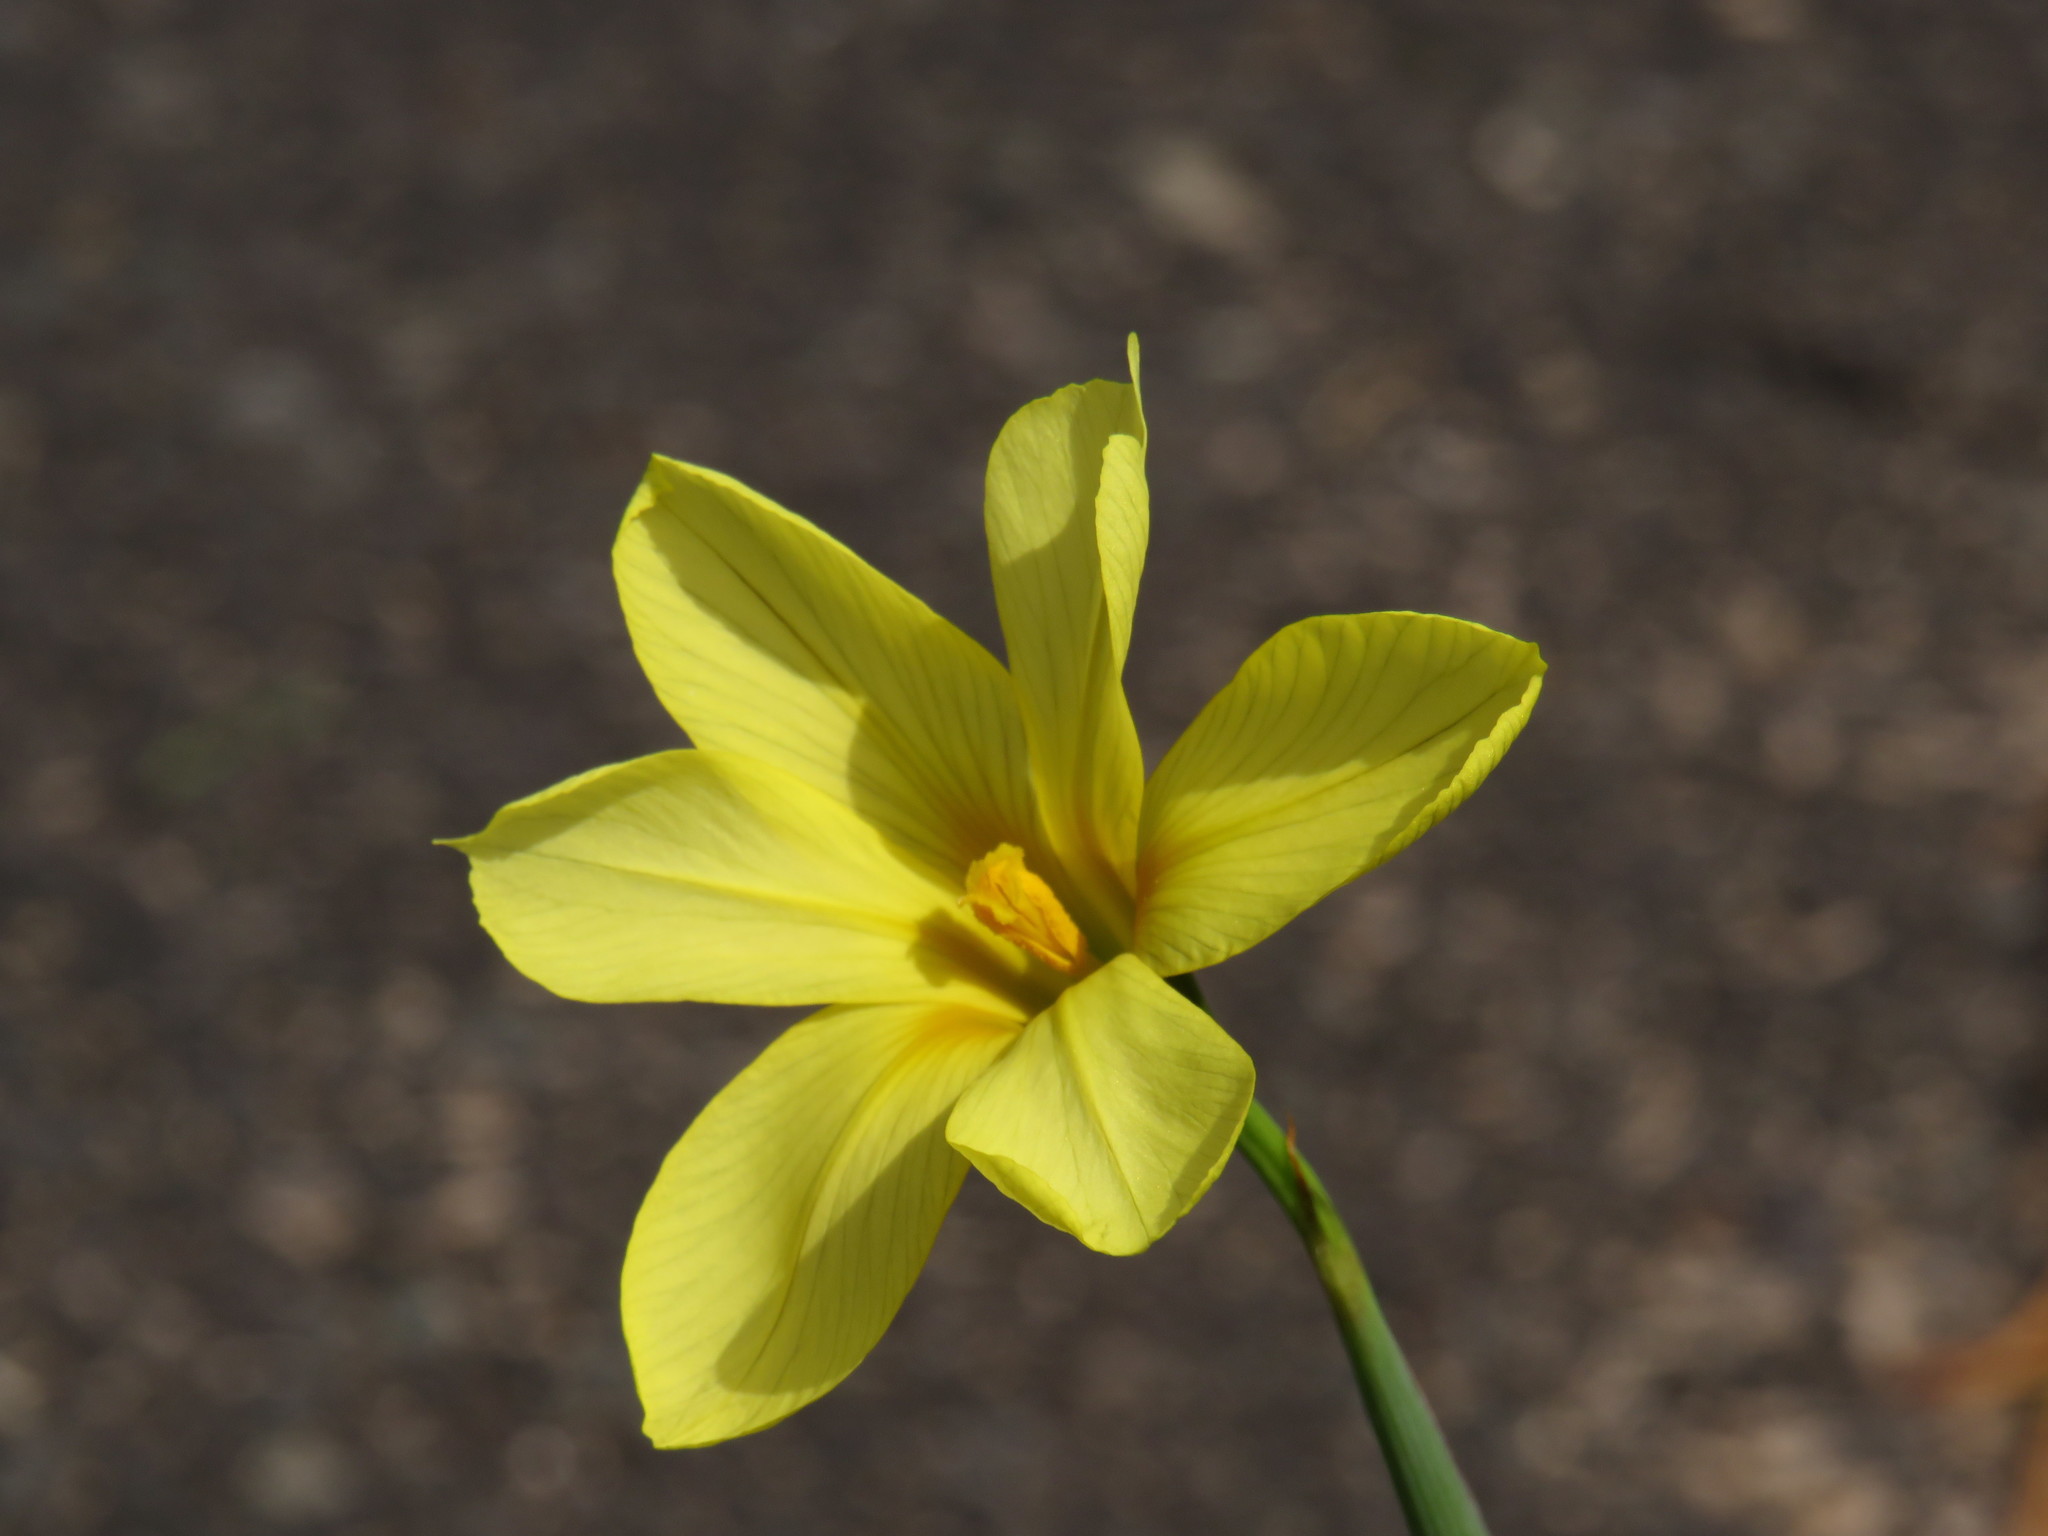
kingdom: Plantae
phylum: Tracheophyta
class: Liliopsida
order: Asparagales
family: Iridaceae
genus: Moraea
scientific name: Moraea collina
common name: Cape-tulip
